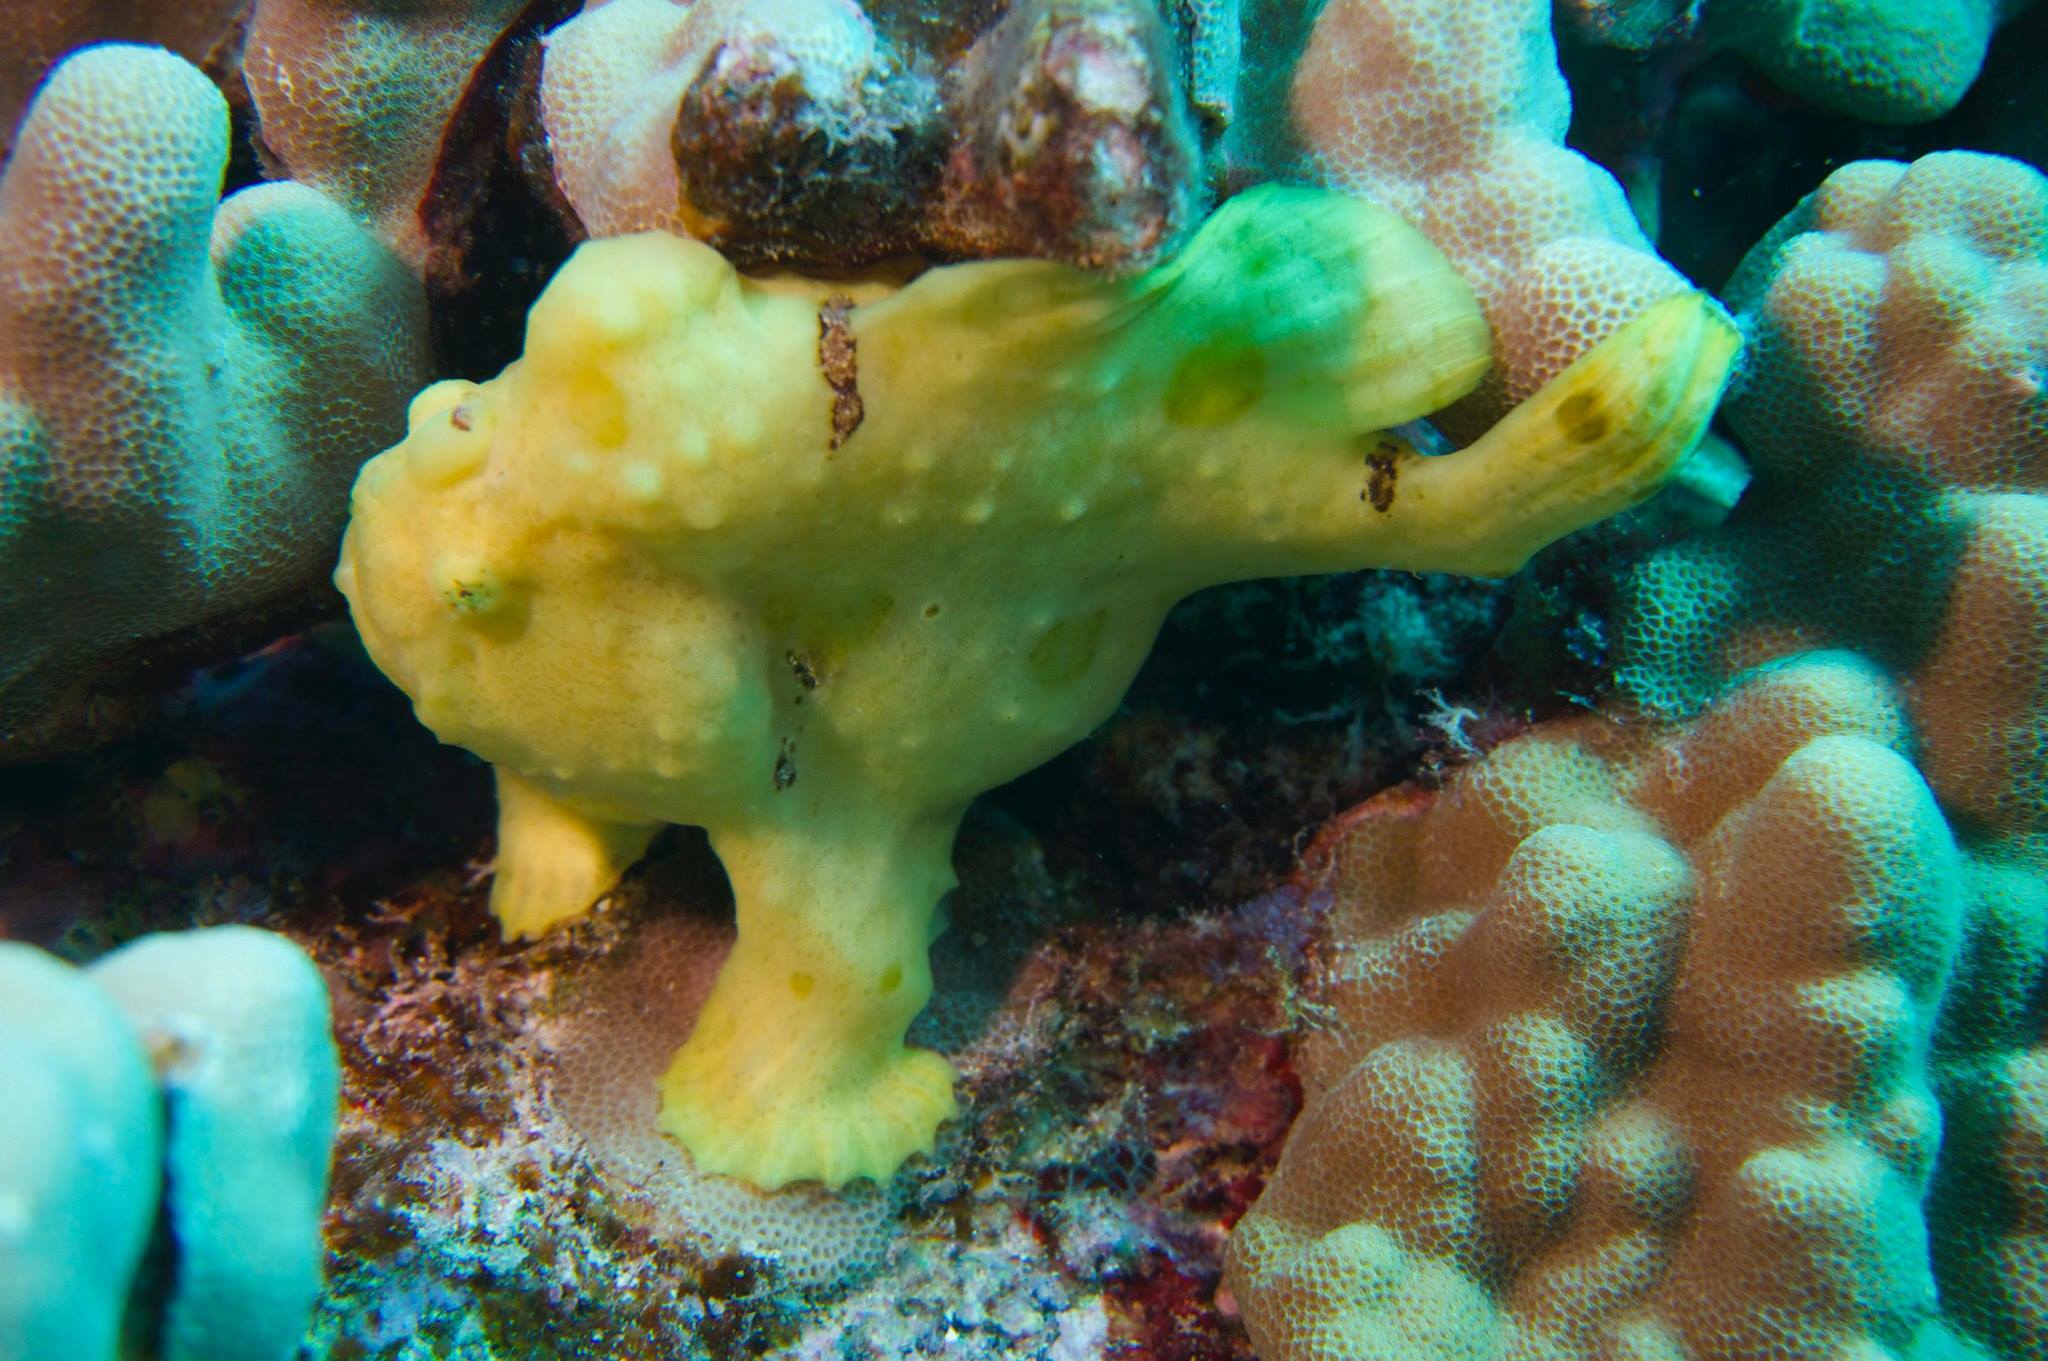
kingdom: Animalia
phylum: Chordata
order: Lophiiformes
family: Antennariidae
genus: Antennarius
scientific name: Antennarius commerson
